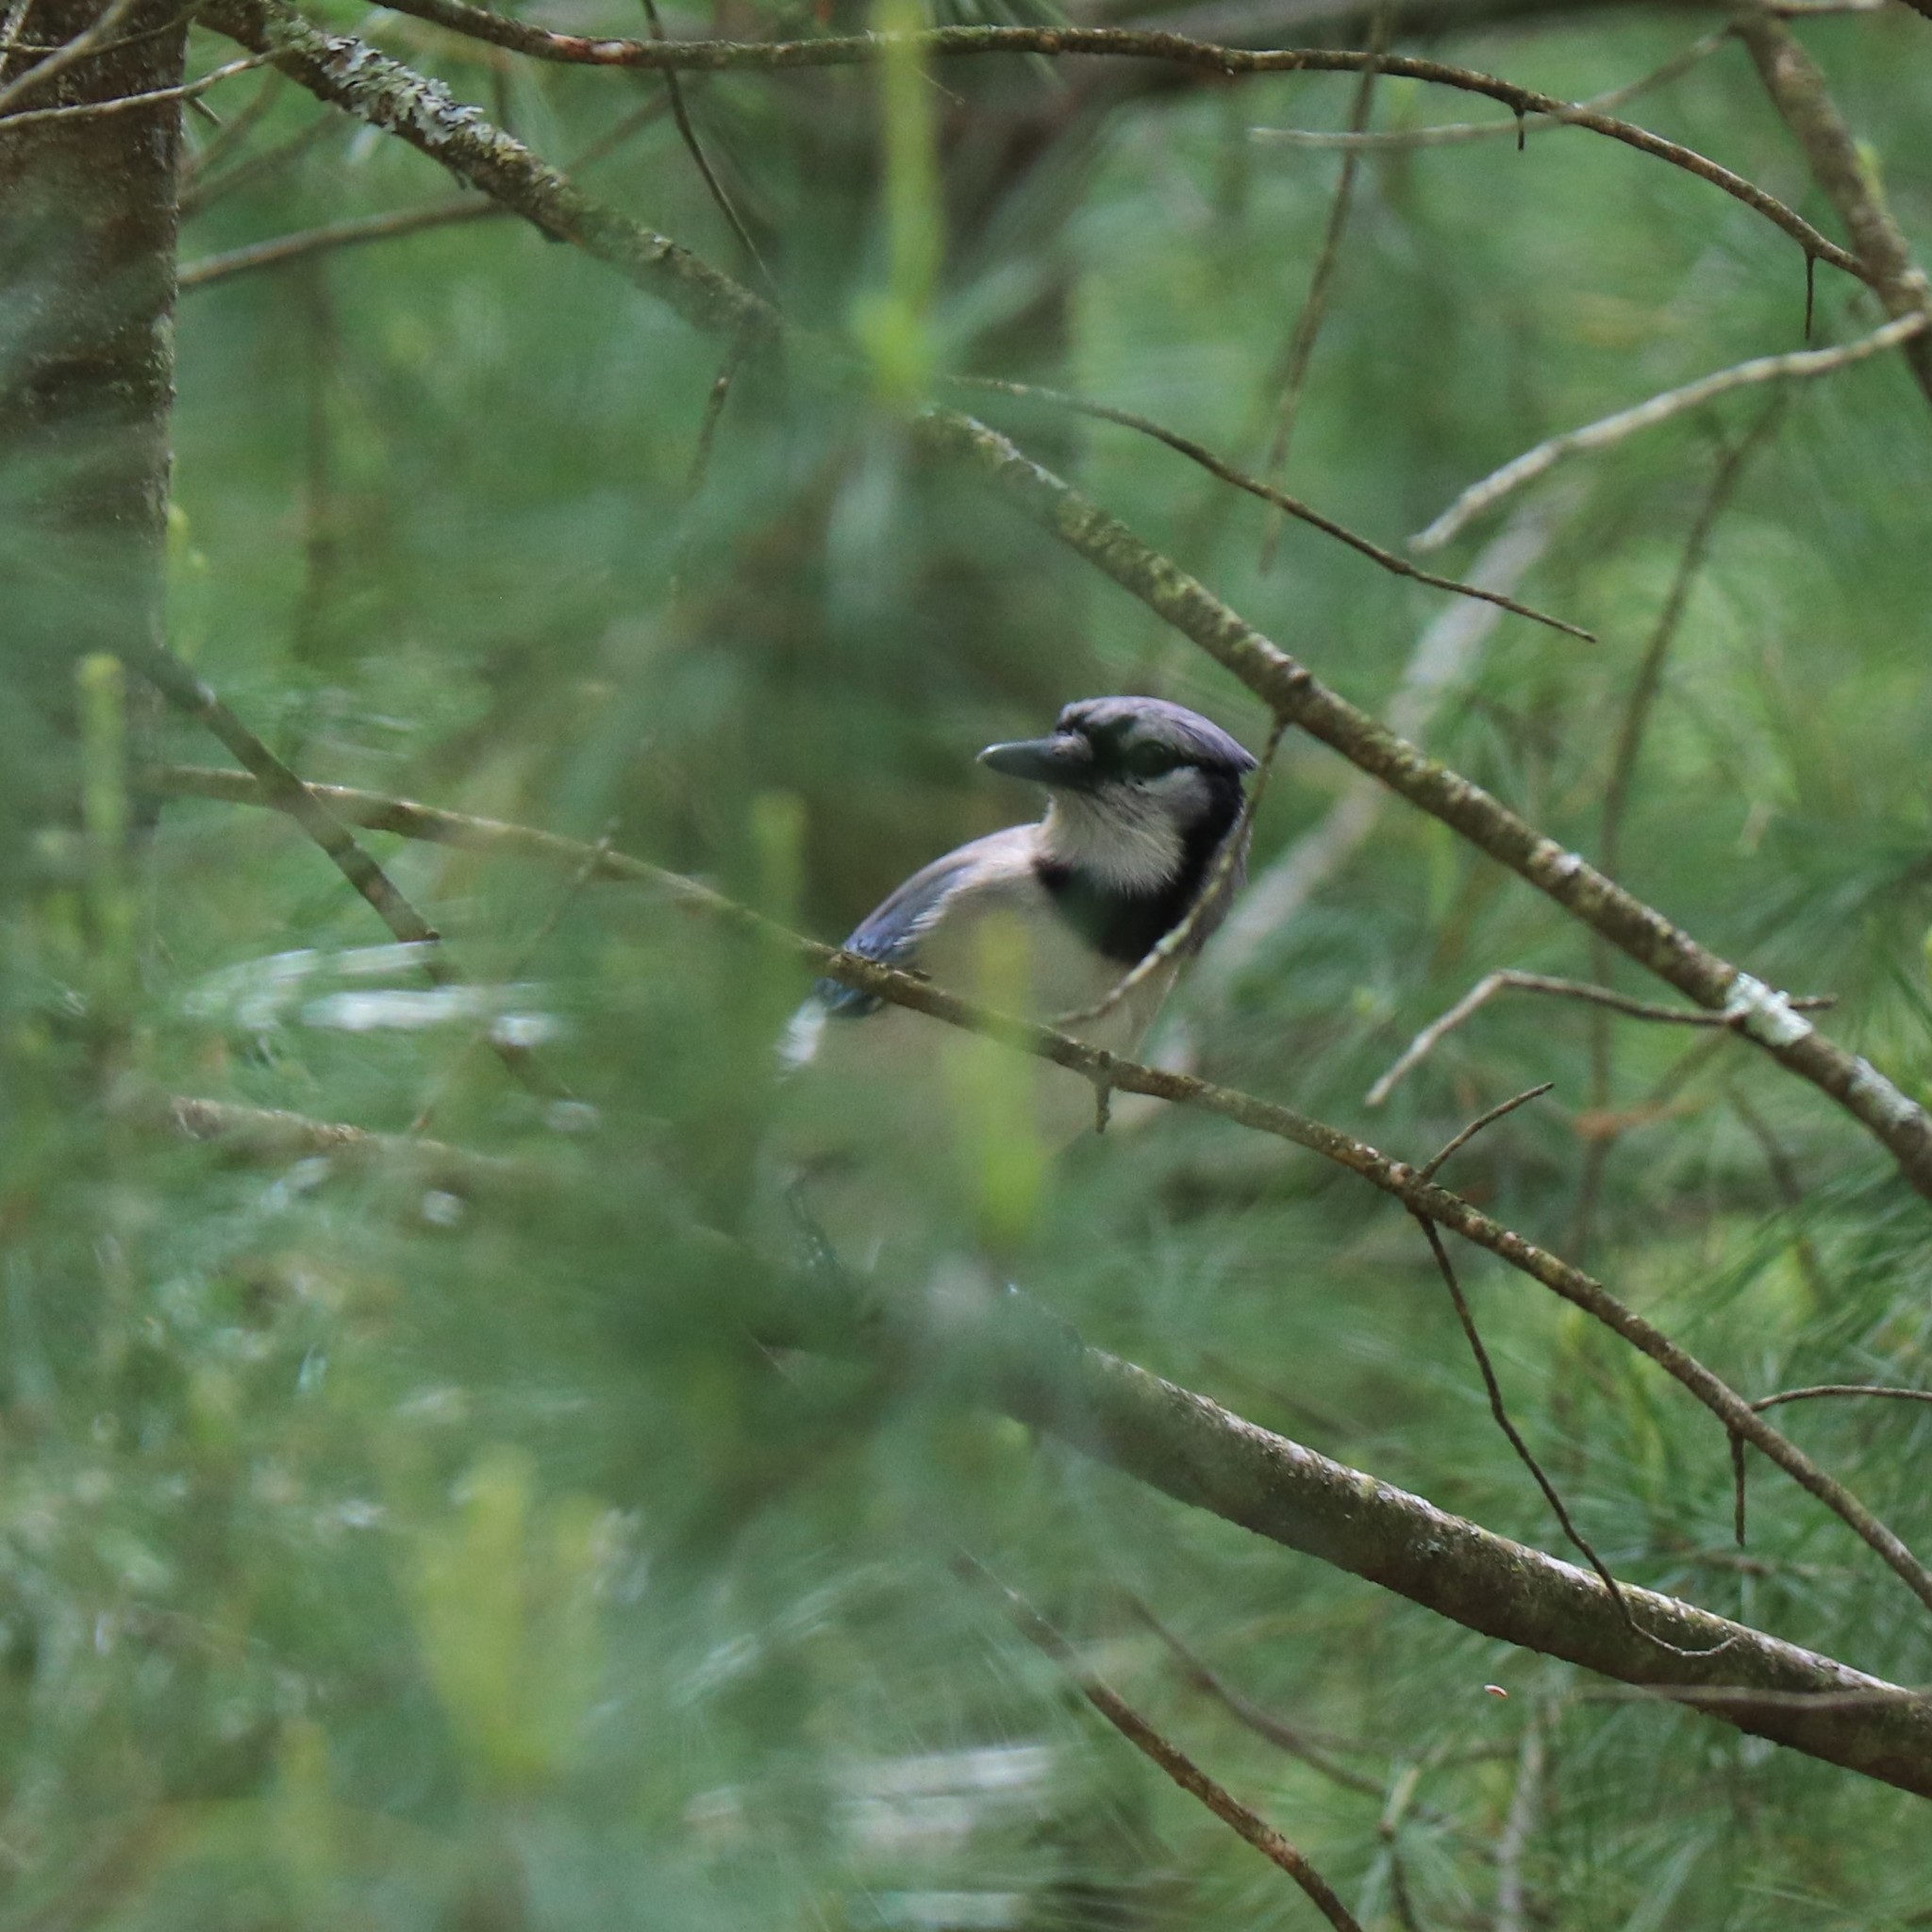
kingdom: Animalia
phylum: Chordata
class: Aves
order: Passeriformes
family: Corvidae
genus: Cyanocitta
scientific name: Cyanocitta cristata
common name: Blue jay
